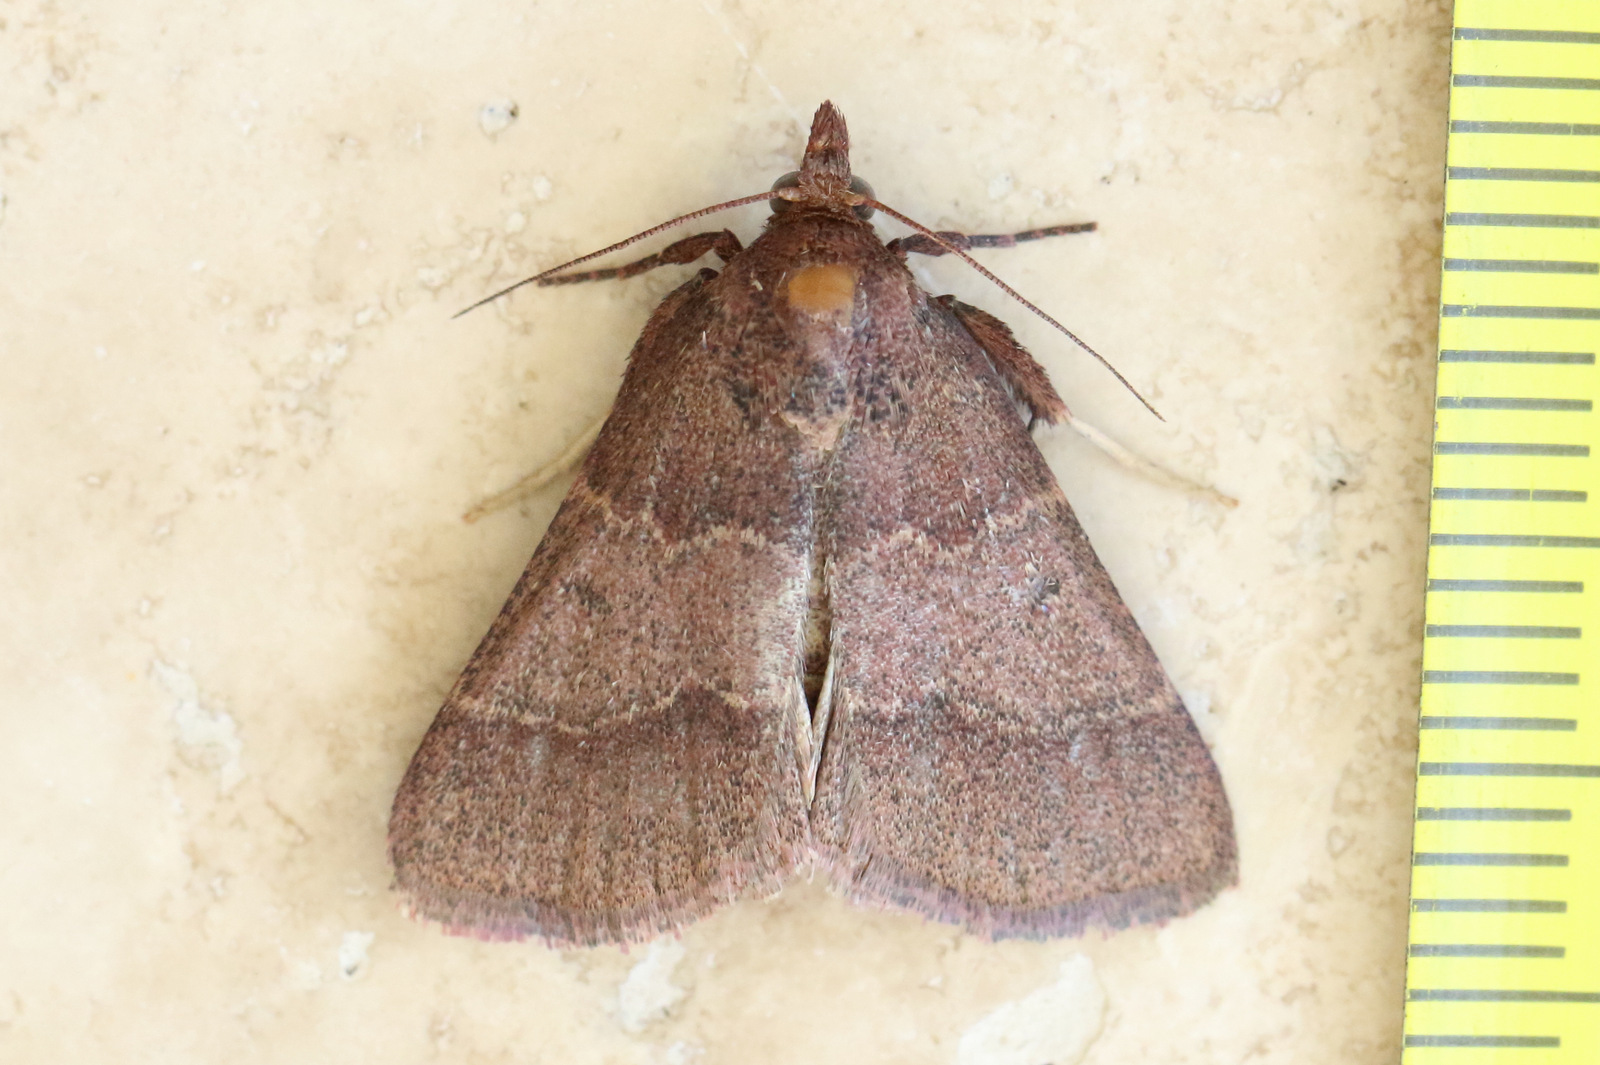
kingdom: Animalia
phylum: Arthropoda
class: Insecta
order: Lepidoptera
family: Pyralidae
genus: Arippara
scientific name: Arippara disticha
